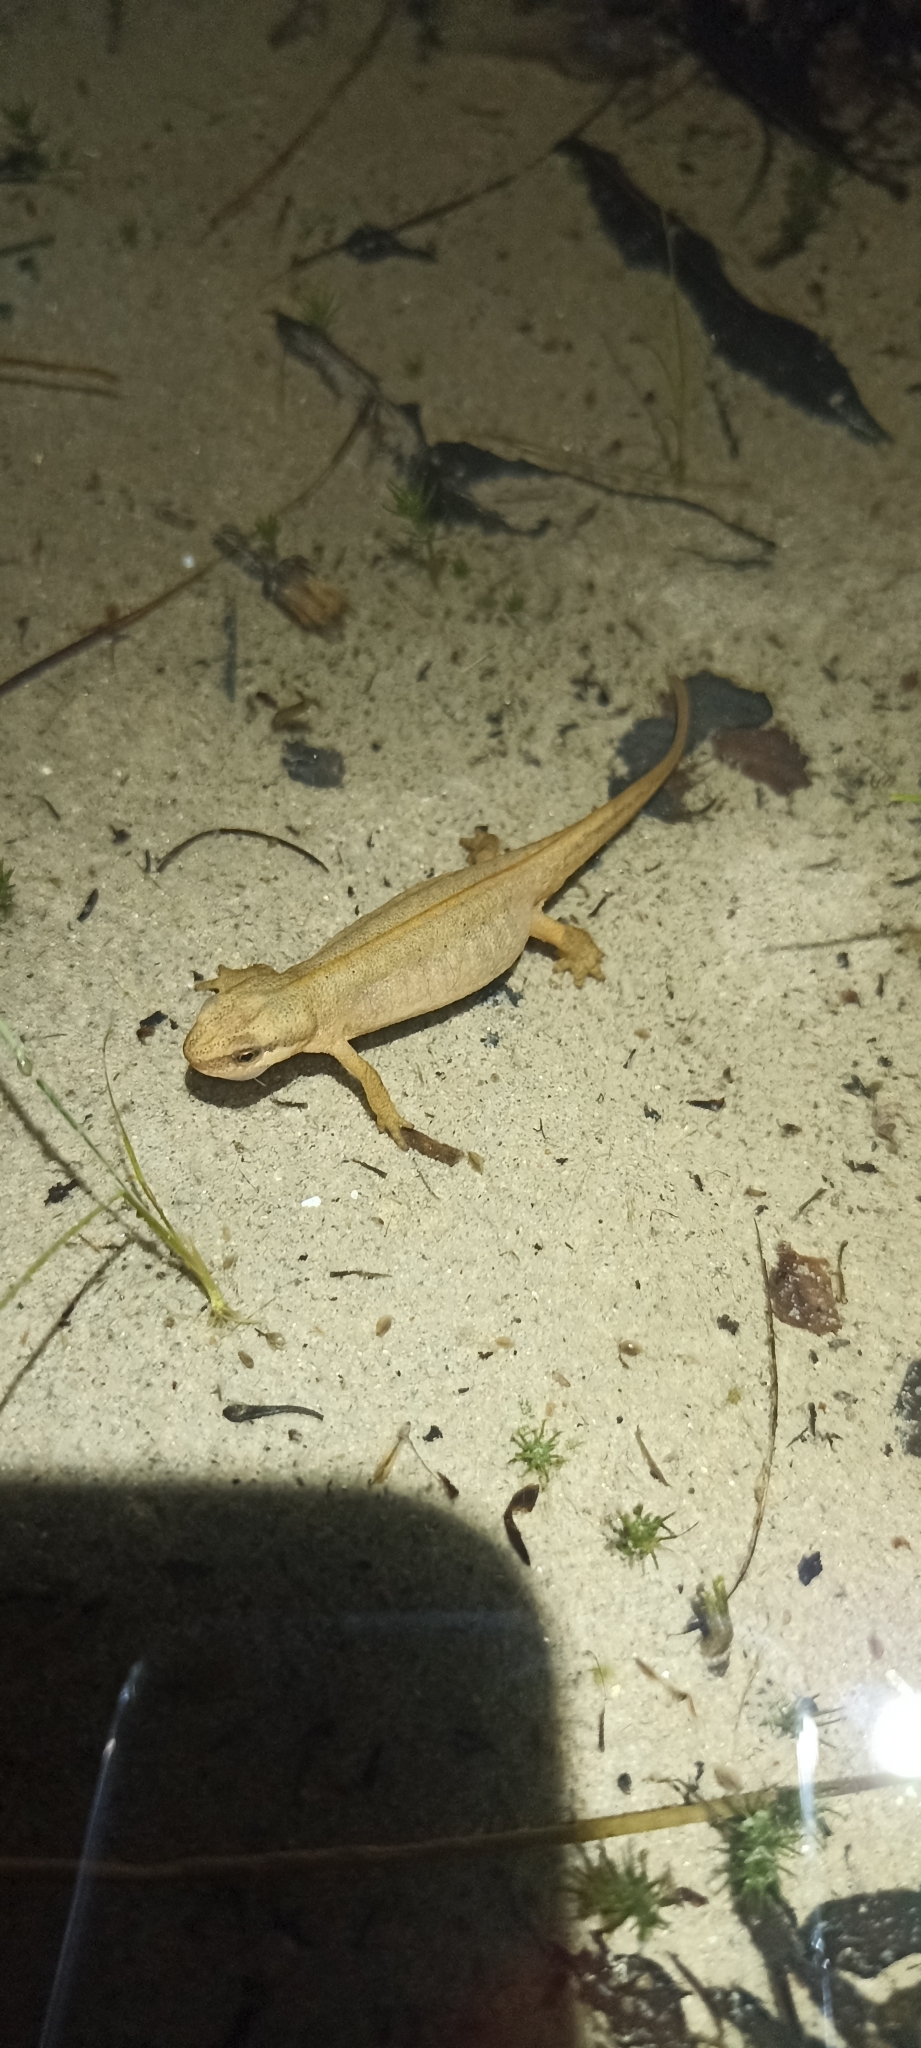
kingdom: Animalia
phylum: Chordata
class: Amphibia
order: Caudata
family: Salamandridae
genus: Lissotriton
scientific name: Lissotriton helveticus
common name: Palmate newt
